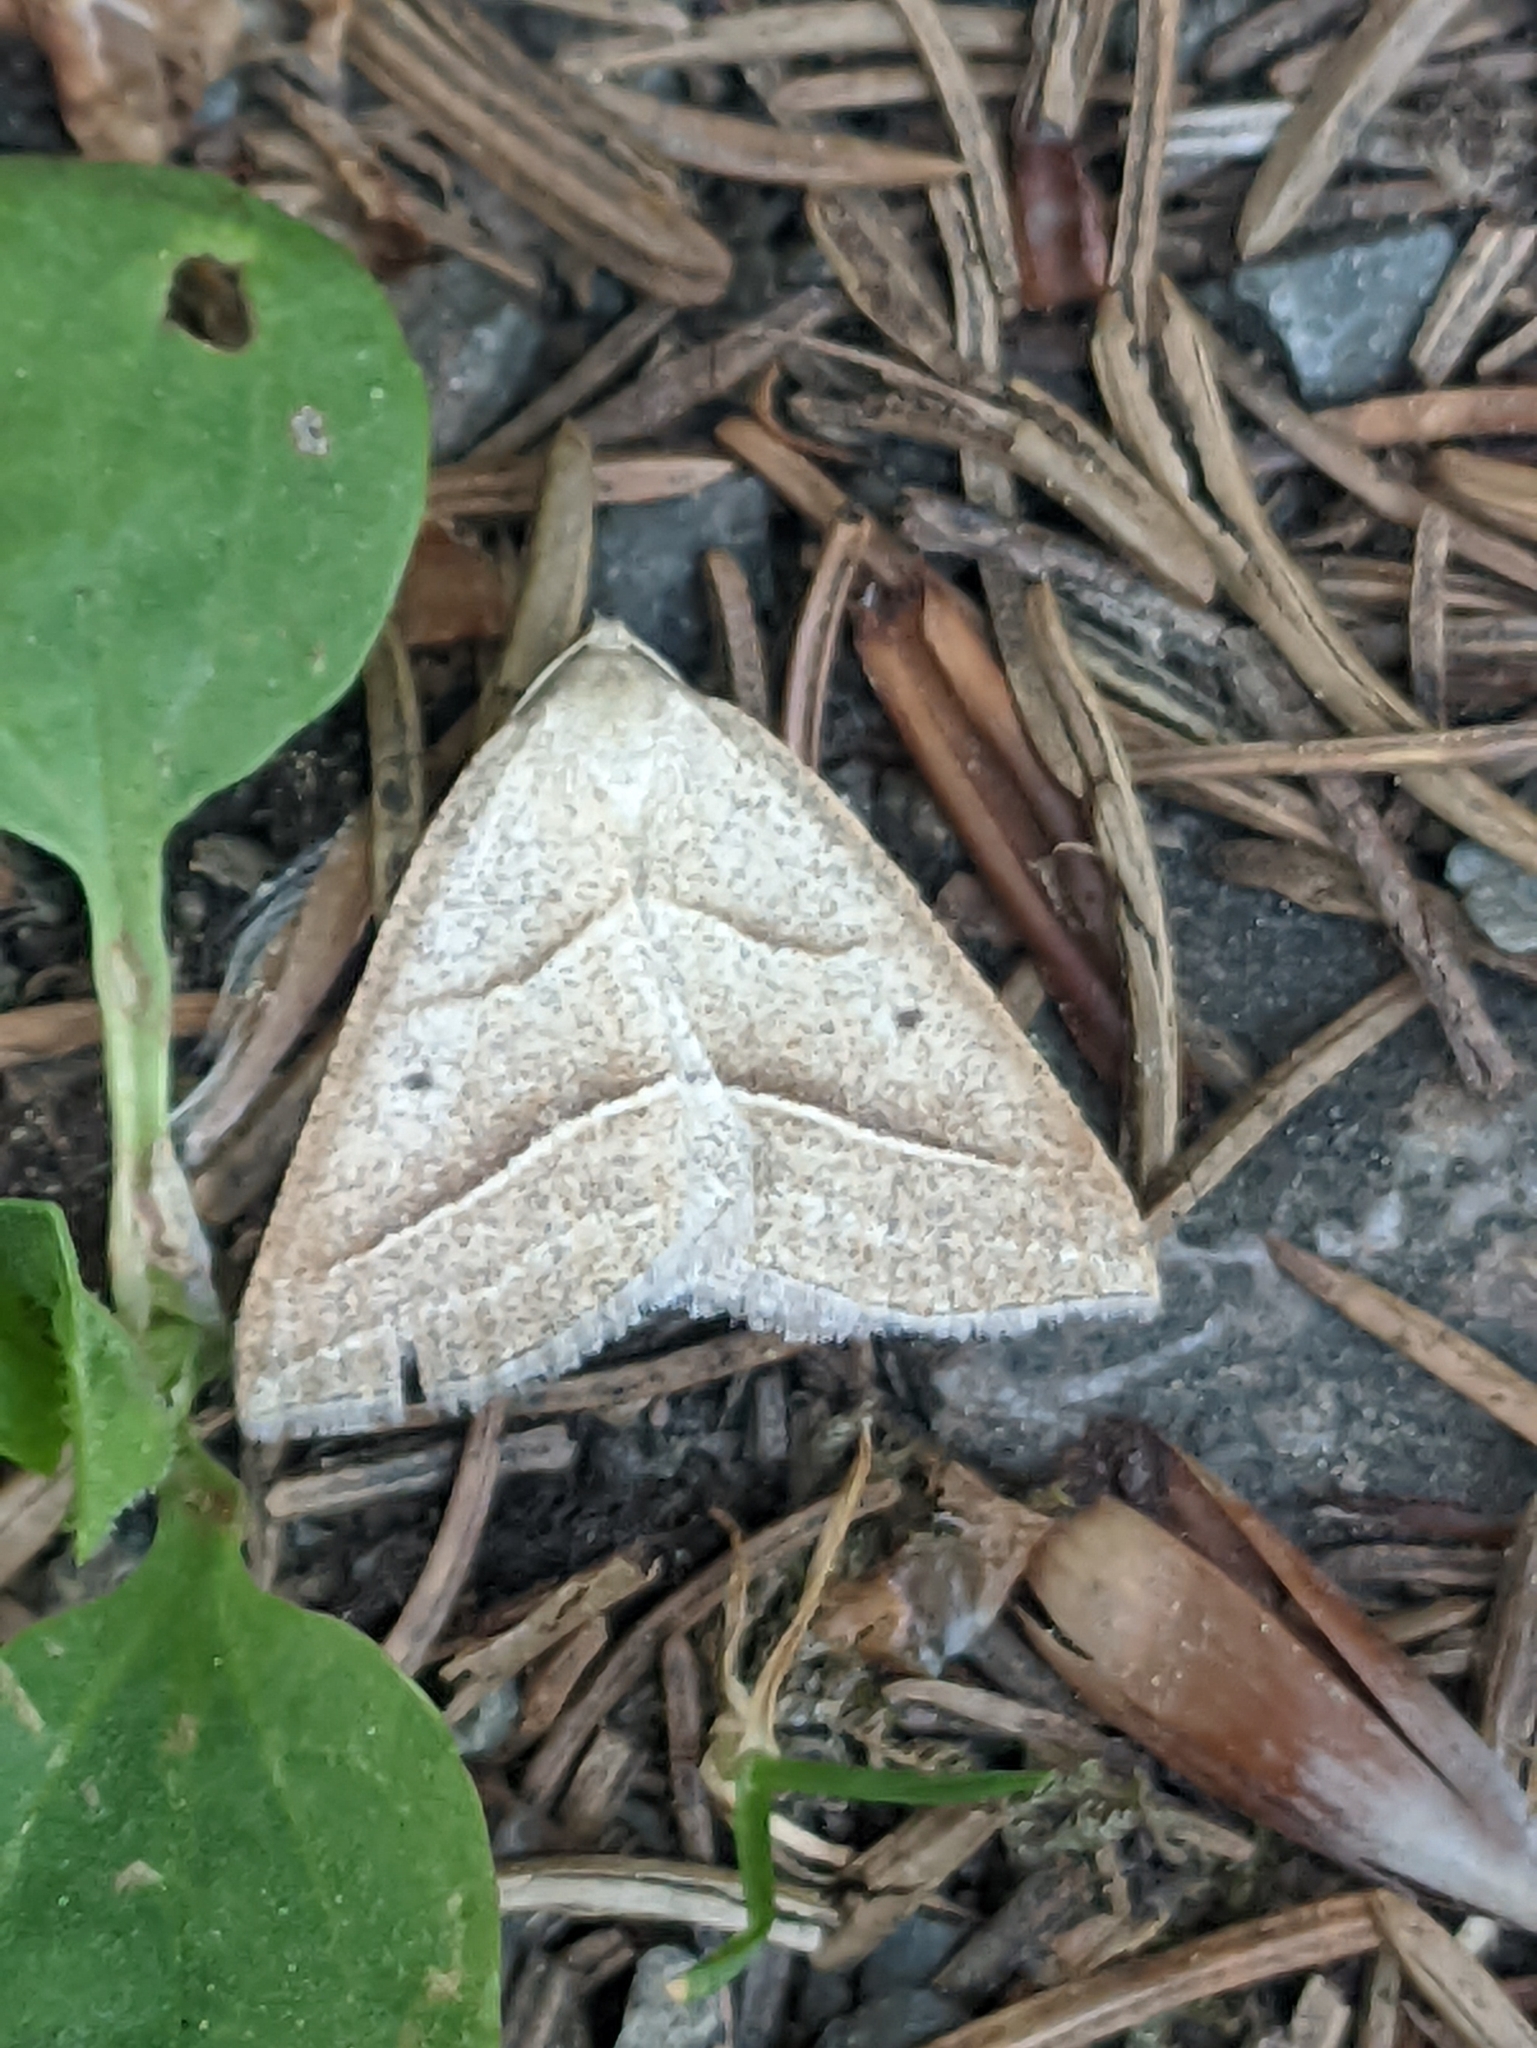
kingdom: Animalia
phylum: Arthropoda
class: Insecta
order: Lepidoptera
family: Pterophoridae
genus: Pterophorus
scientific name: Pterophorus Petrophora chlorosata
